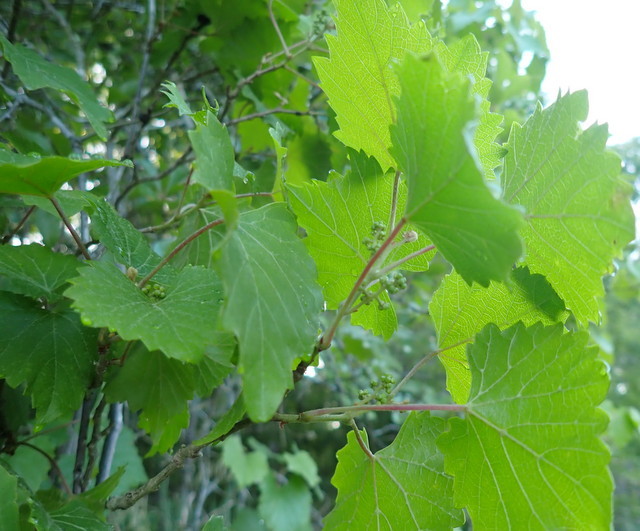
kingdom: Plantae
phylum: Tracheophyta
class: Magnoliopsida
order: Vitales
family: Vitaceae
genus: Vitis
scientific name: Vitis rotundifolia
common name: Muscadine grape
